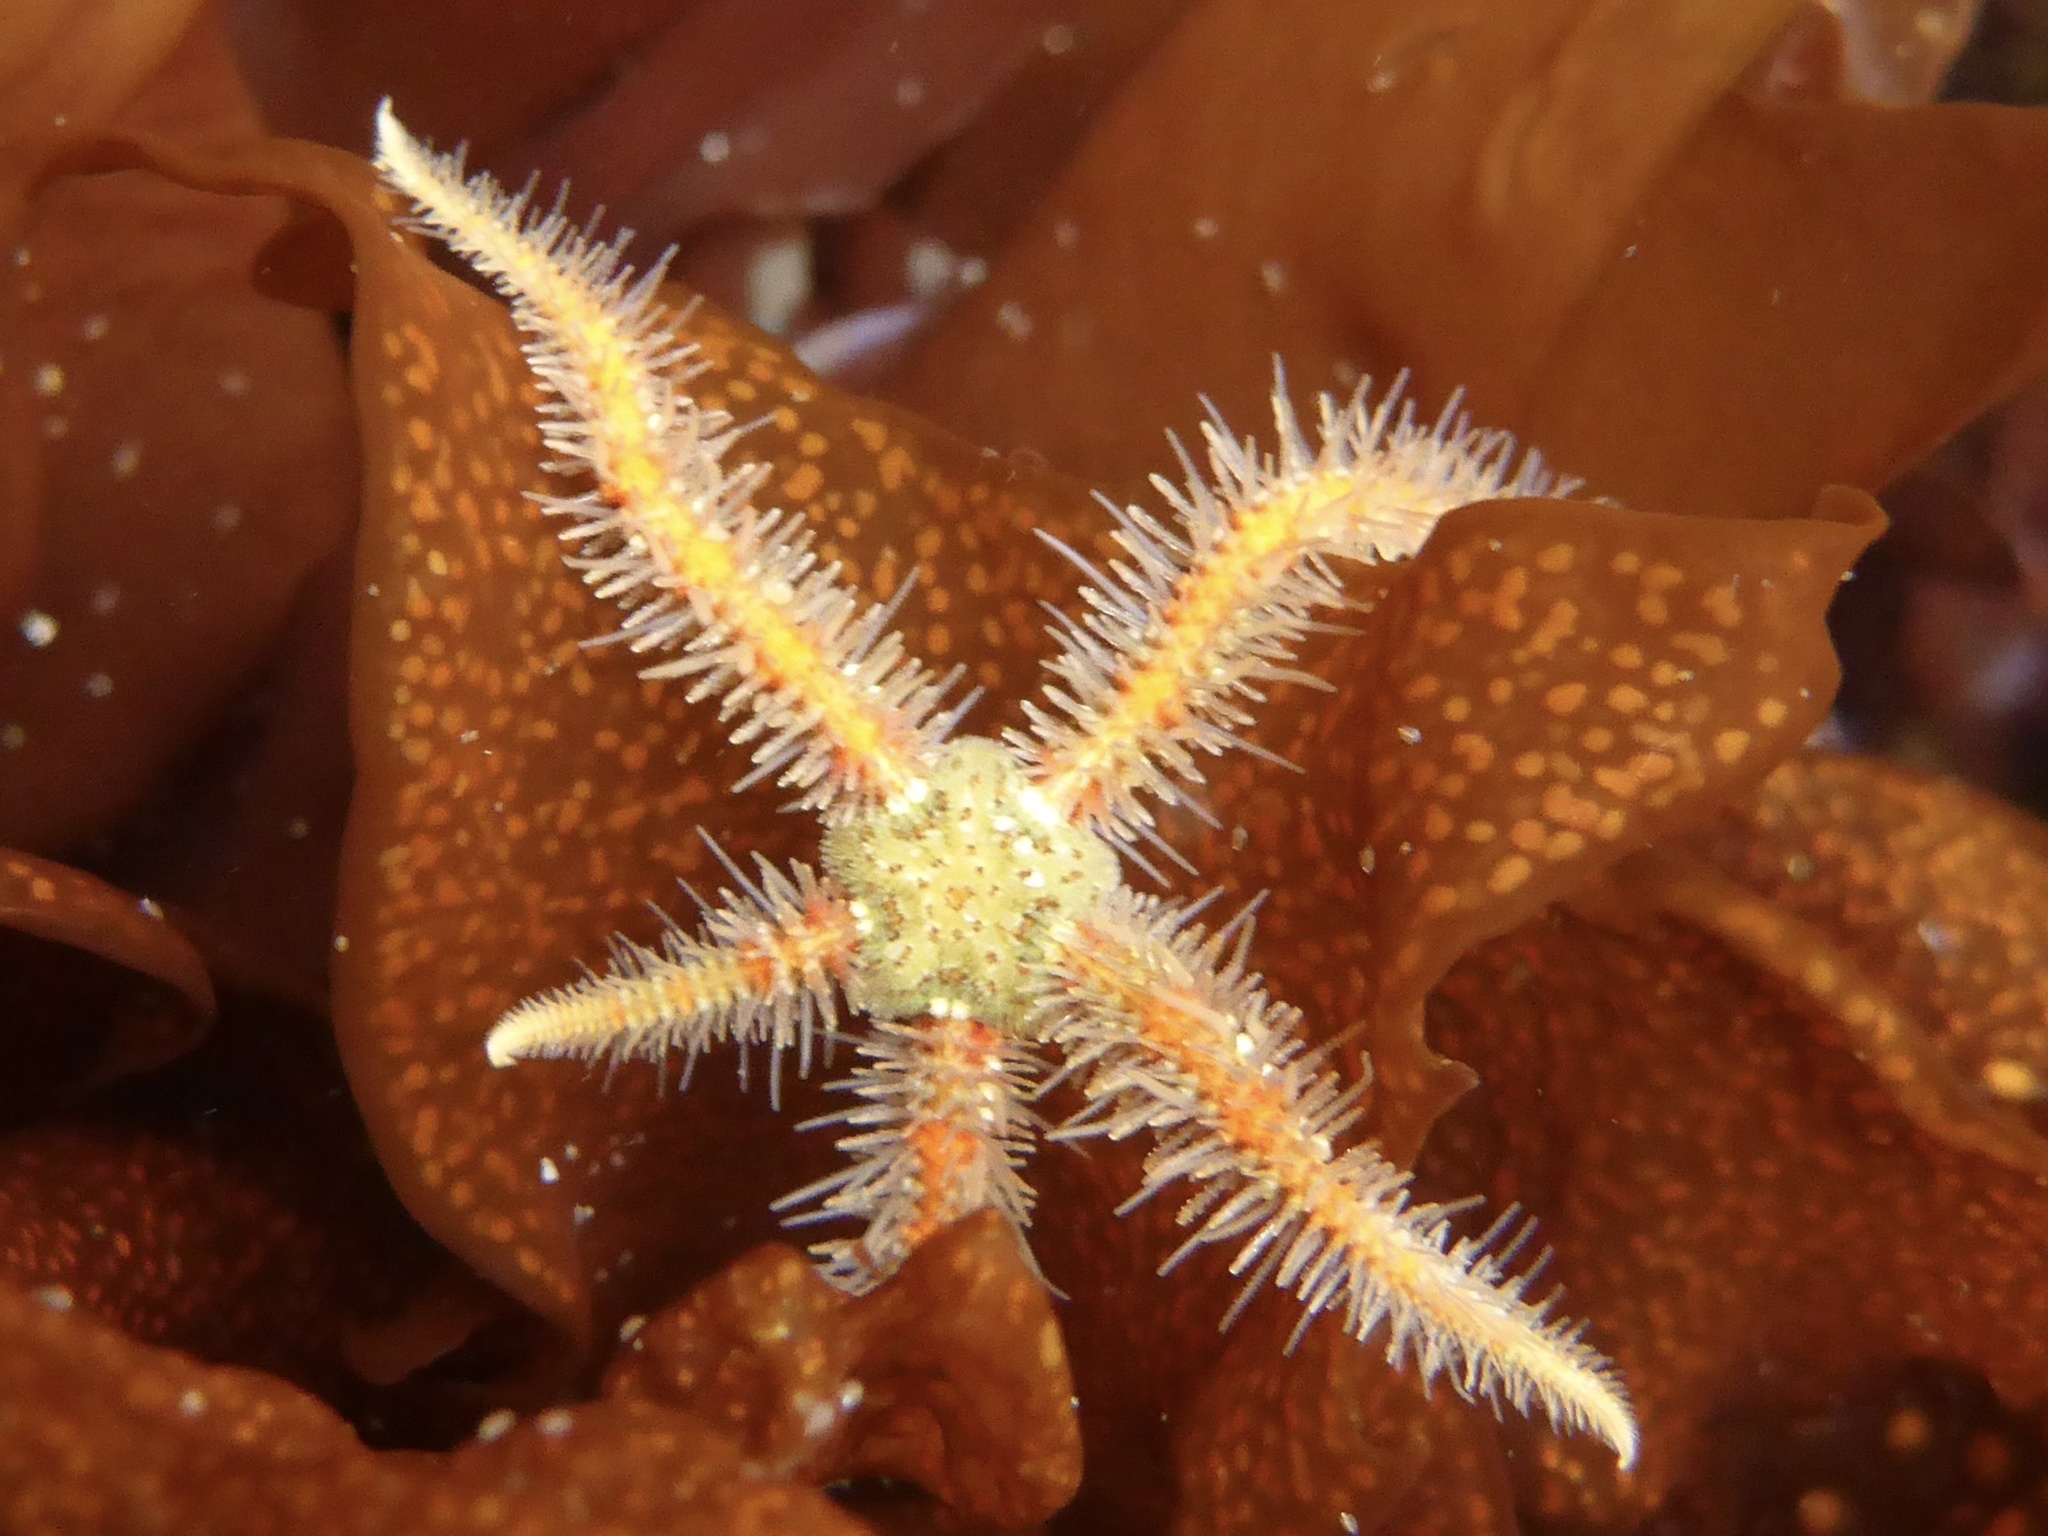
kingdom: Animalia
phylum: Echinodermata
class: Ophiuroidea
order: Amphilepidida
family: Ophiotrichidae
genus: Ophiothrix
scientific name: Ophiothrix spiculata
